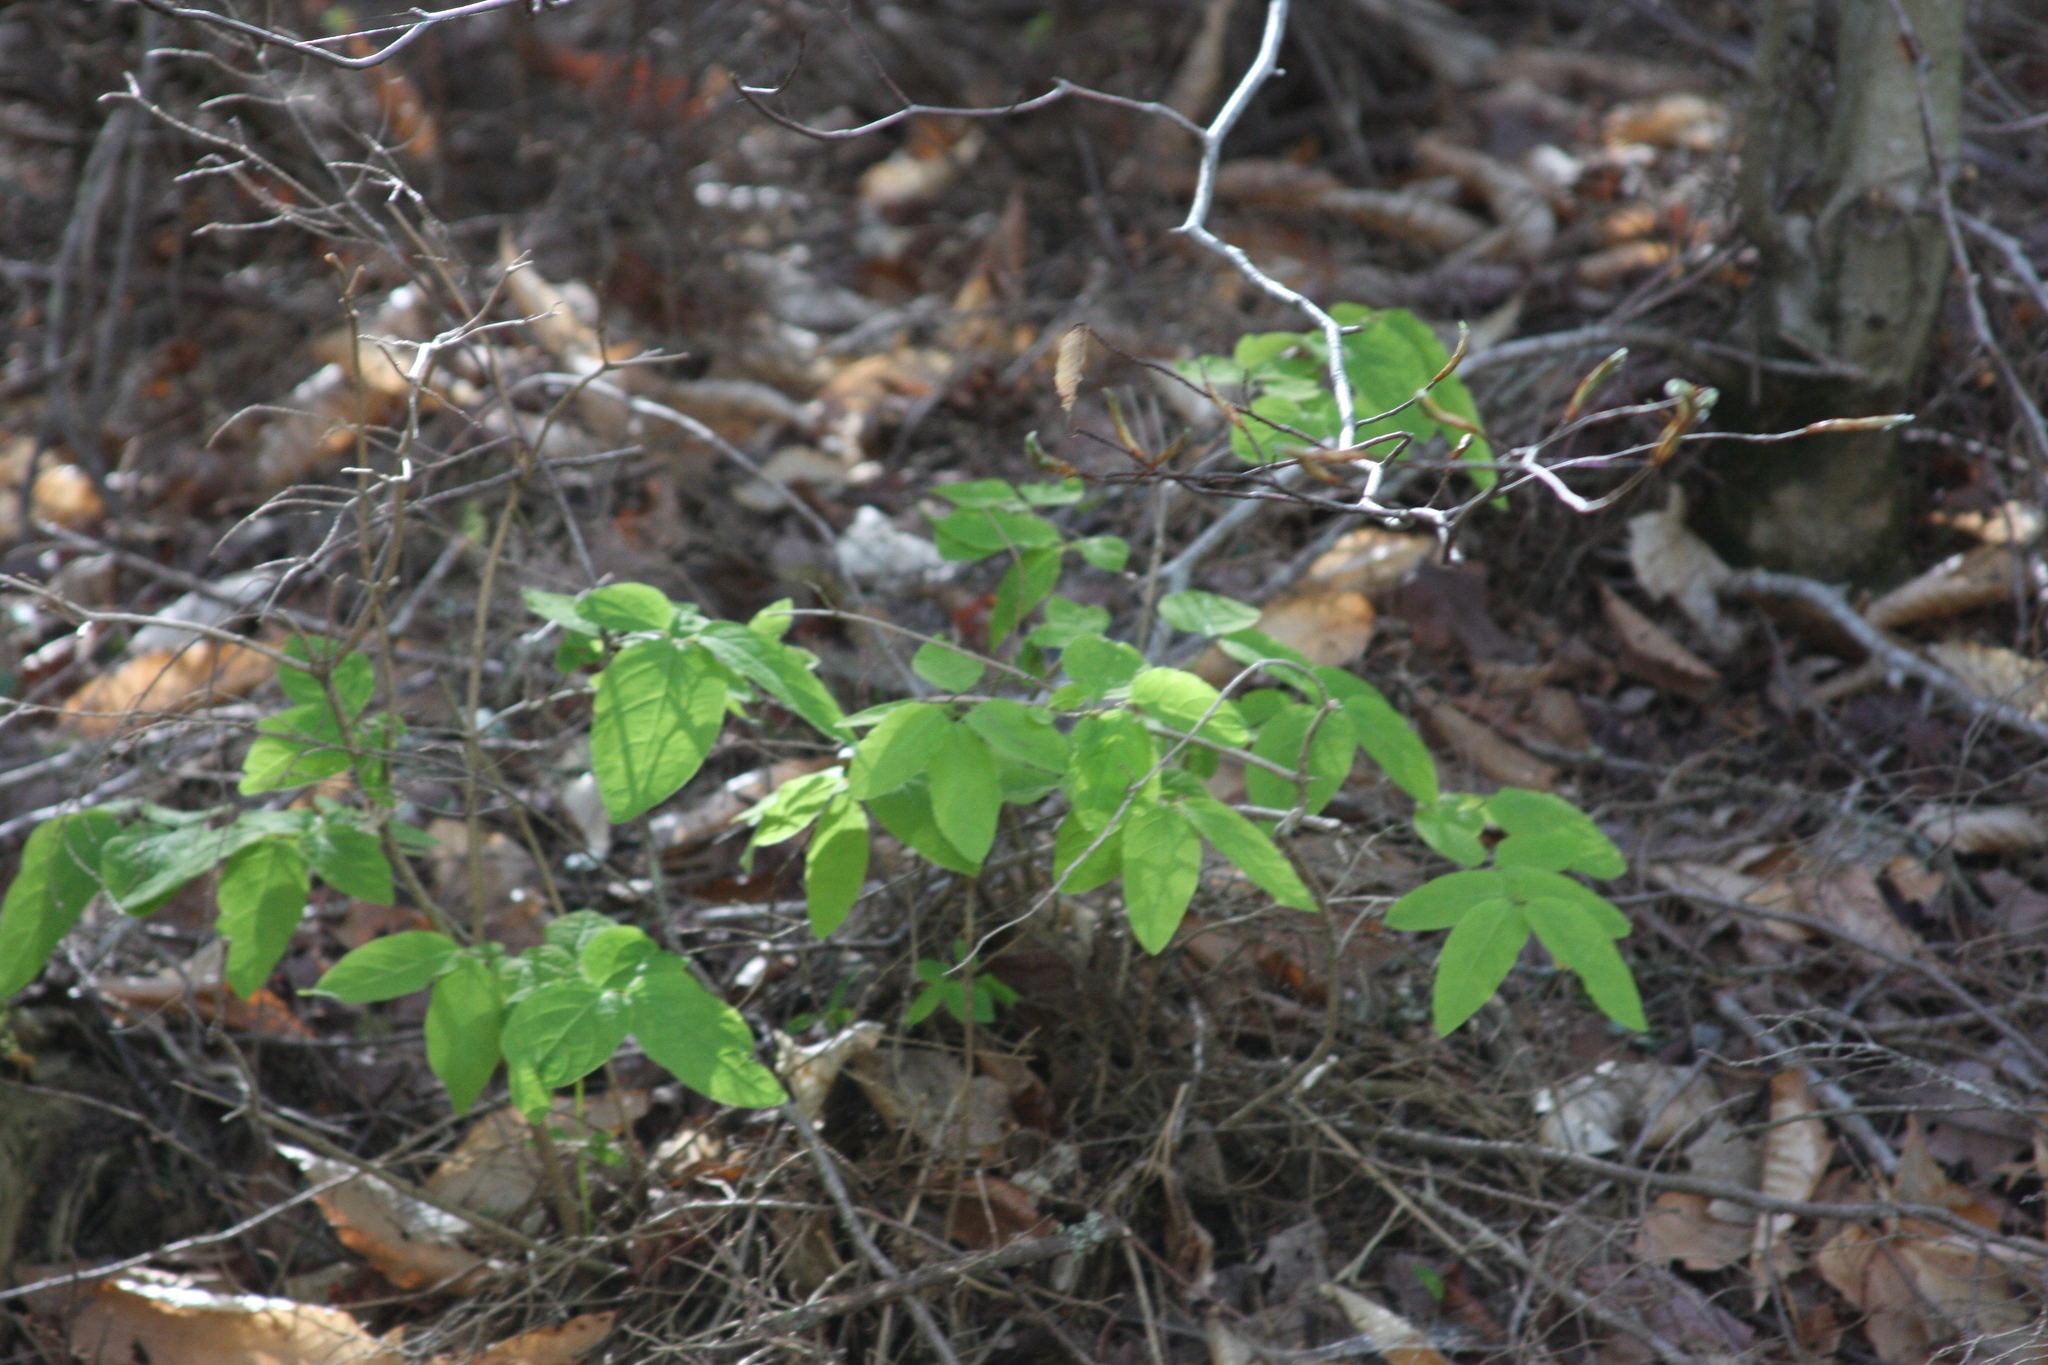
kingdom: Plantae
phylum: Tracheophyta
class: Magnoliopsida
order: Dipsacales
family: Caprifoliaceae
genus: Lonicera
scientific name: Lonicera canadensis
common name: American fly-honeysuckle
